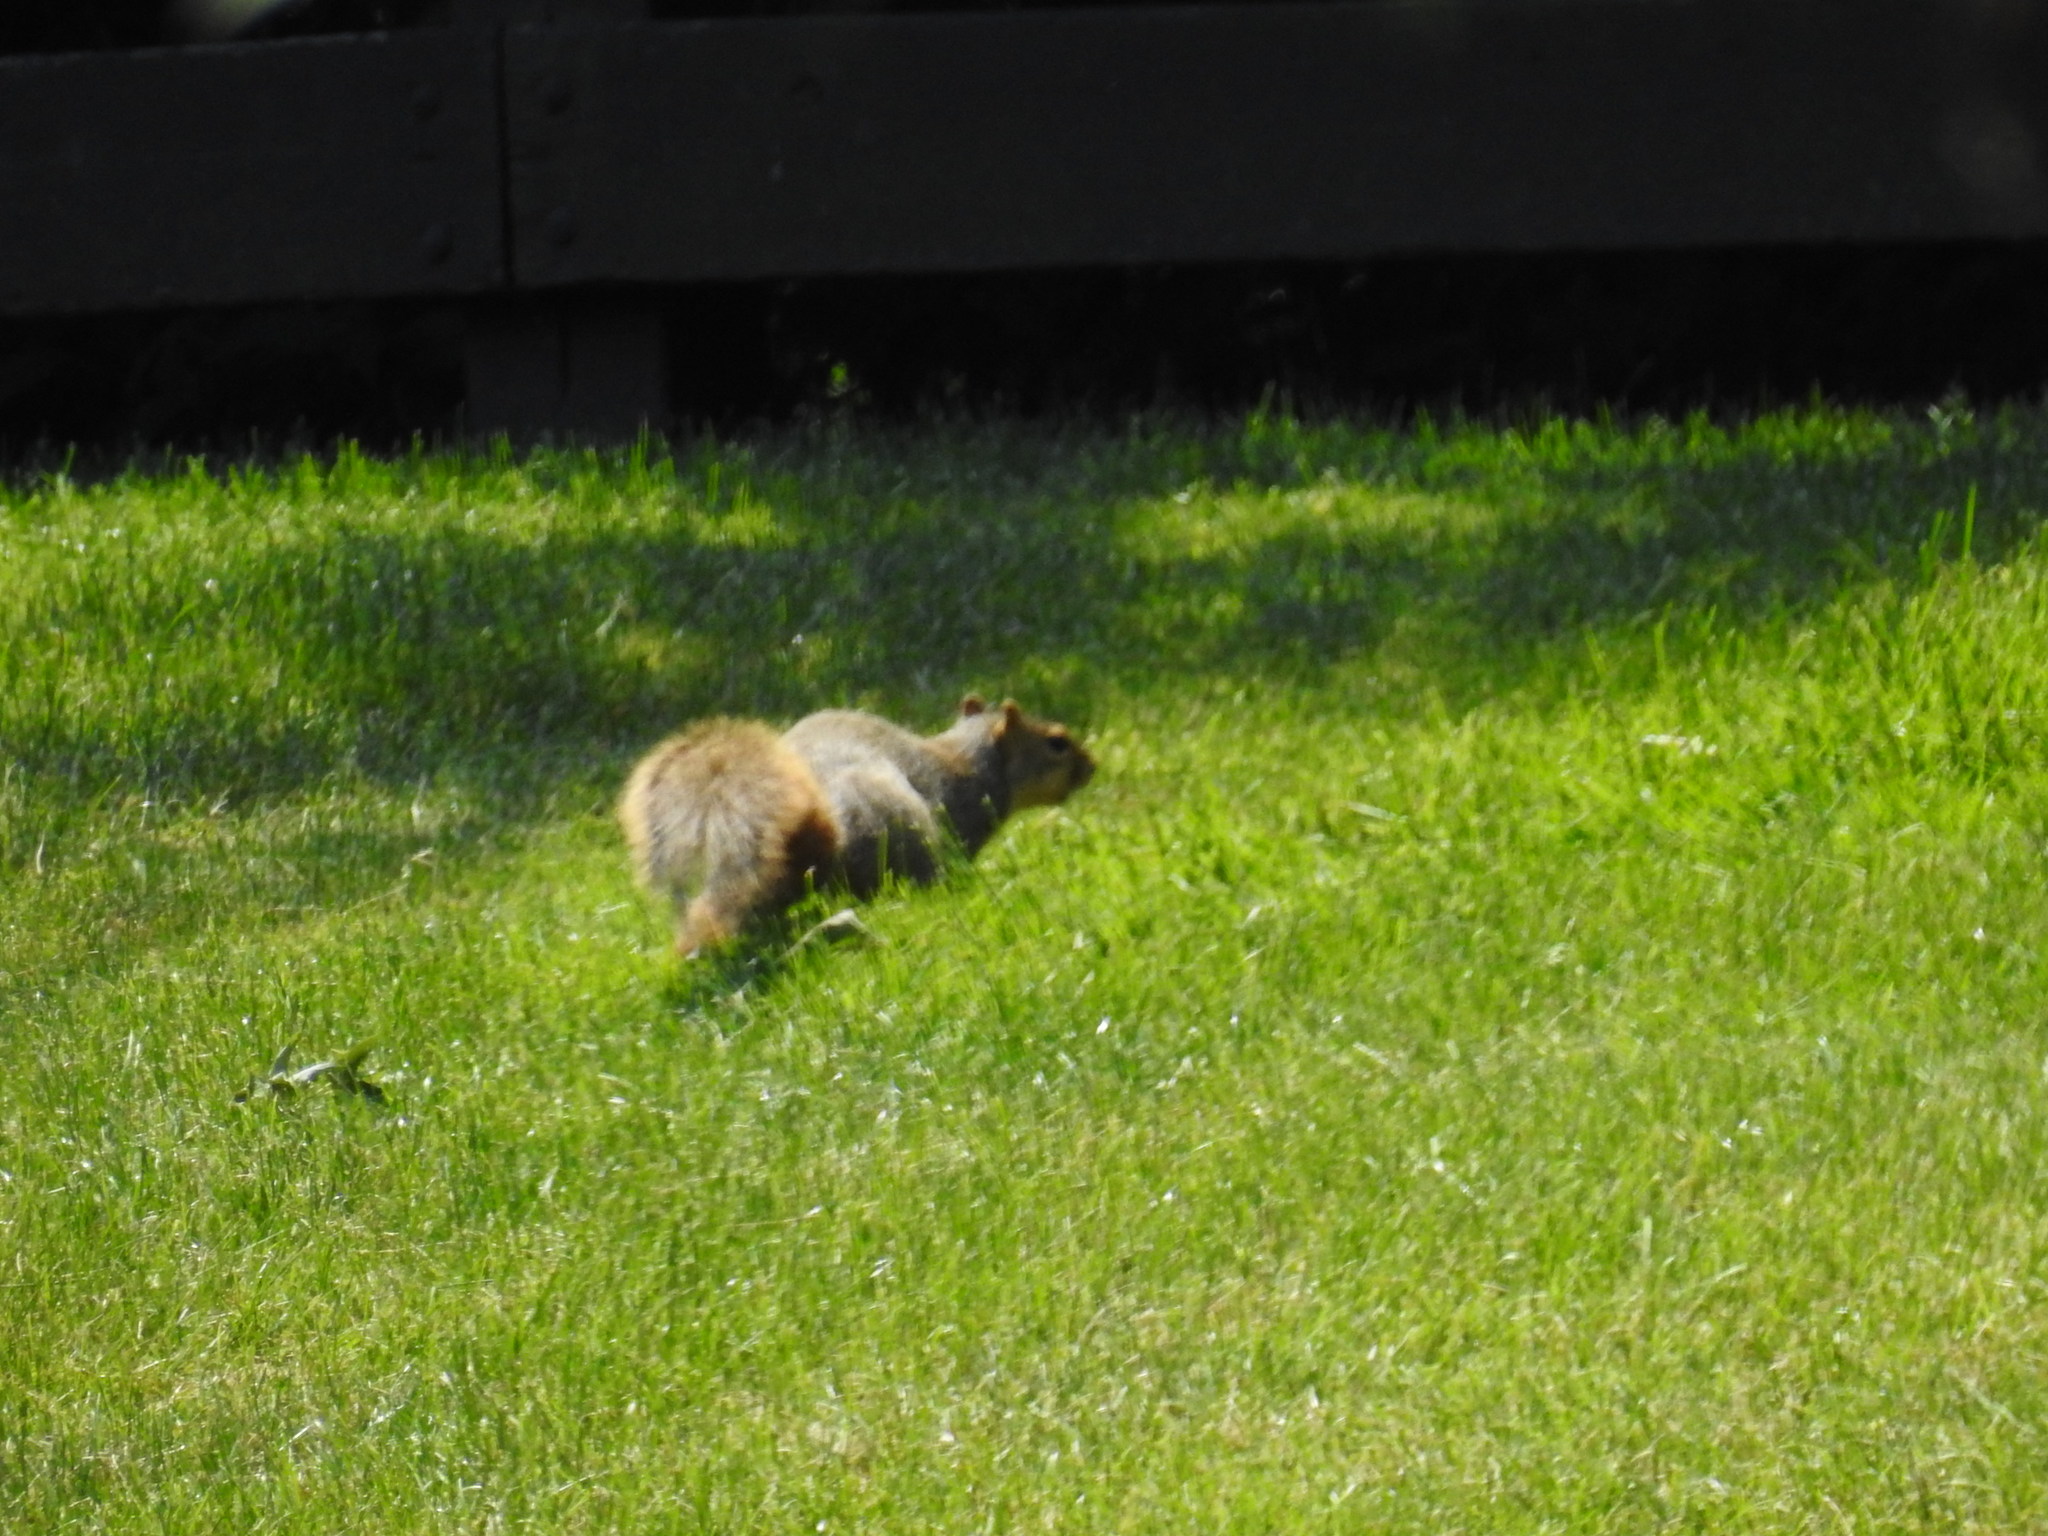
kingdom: Animalia
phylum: Chordata
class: Mammalia
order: Rodentia
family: Sciuridae
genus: Sciurus
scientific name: Sciurus niger
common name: Fox squirrel
